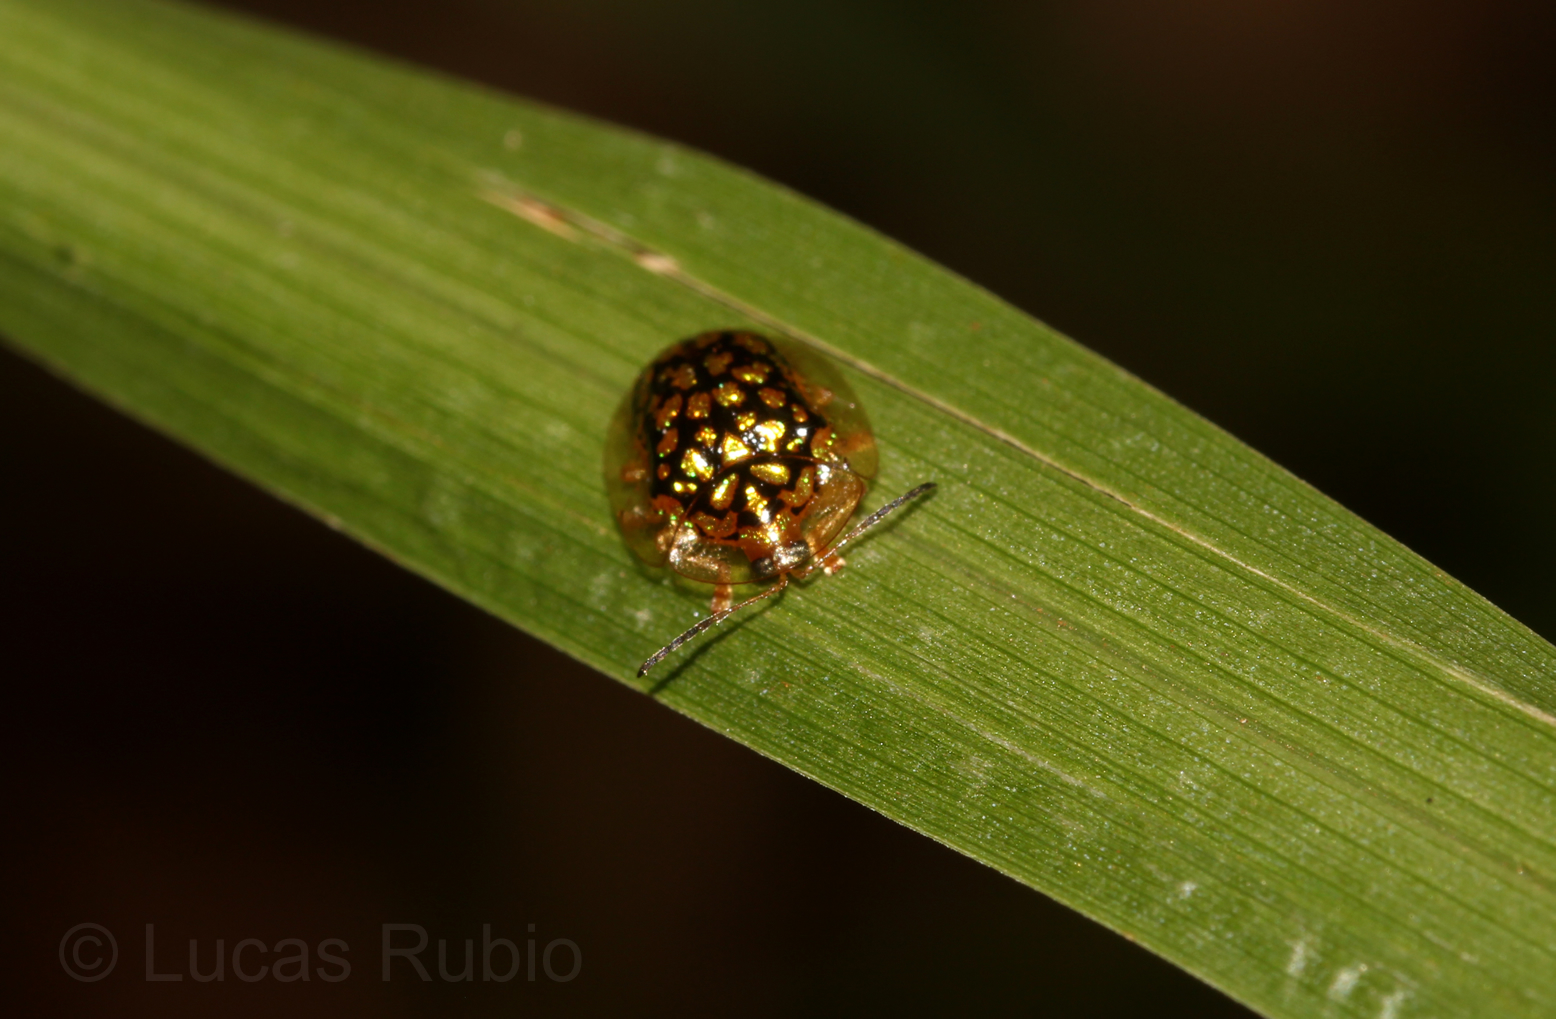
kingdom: Animalia
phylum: Arthropoda
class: Insecta
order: Coleoptera
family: Chrysomelidae
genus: Cteisella
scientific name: Cteisella confusa
